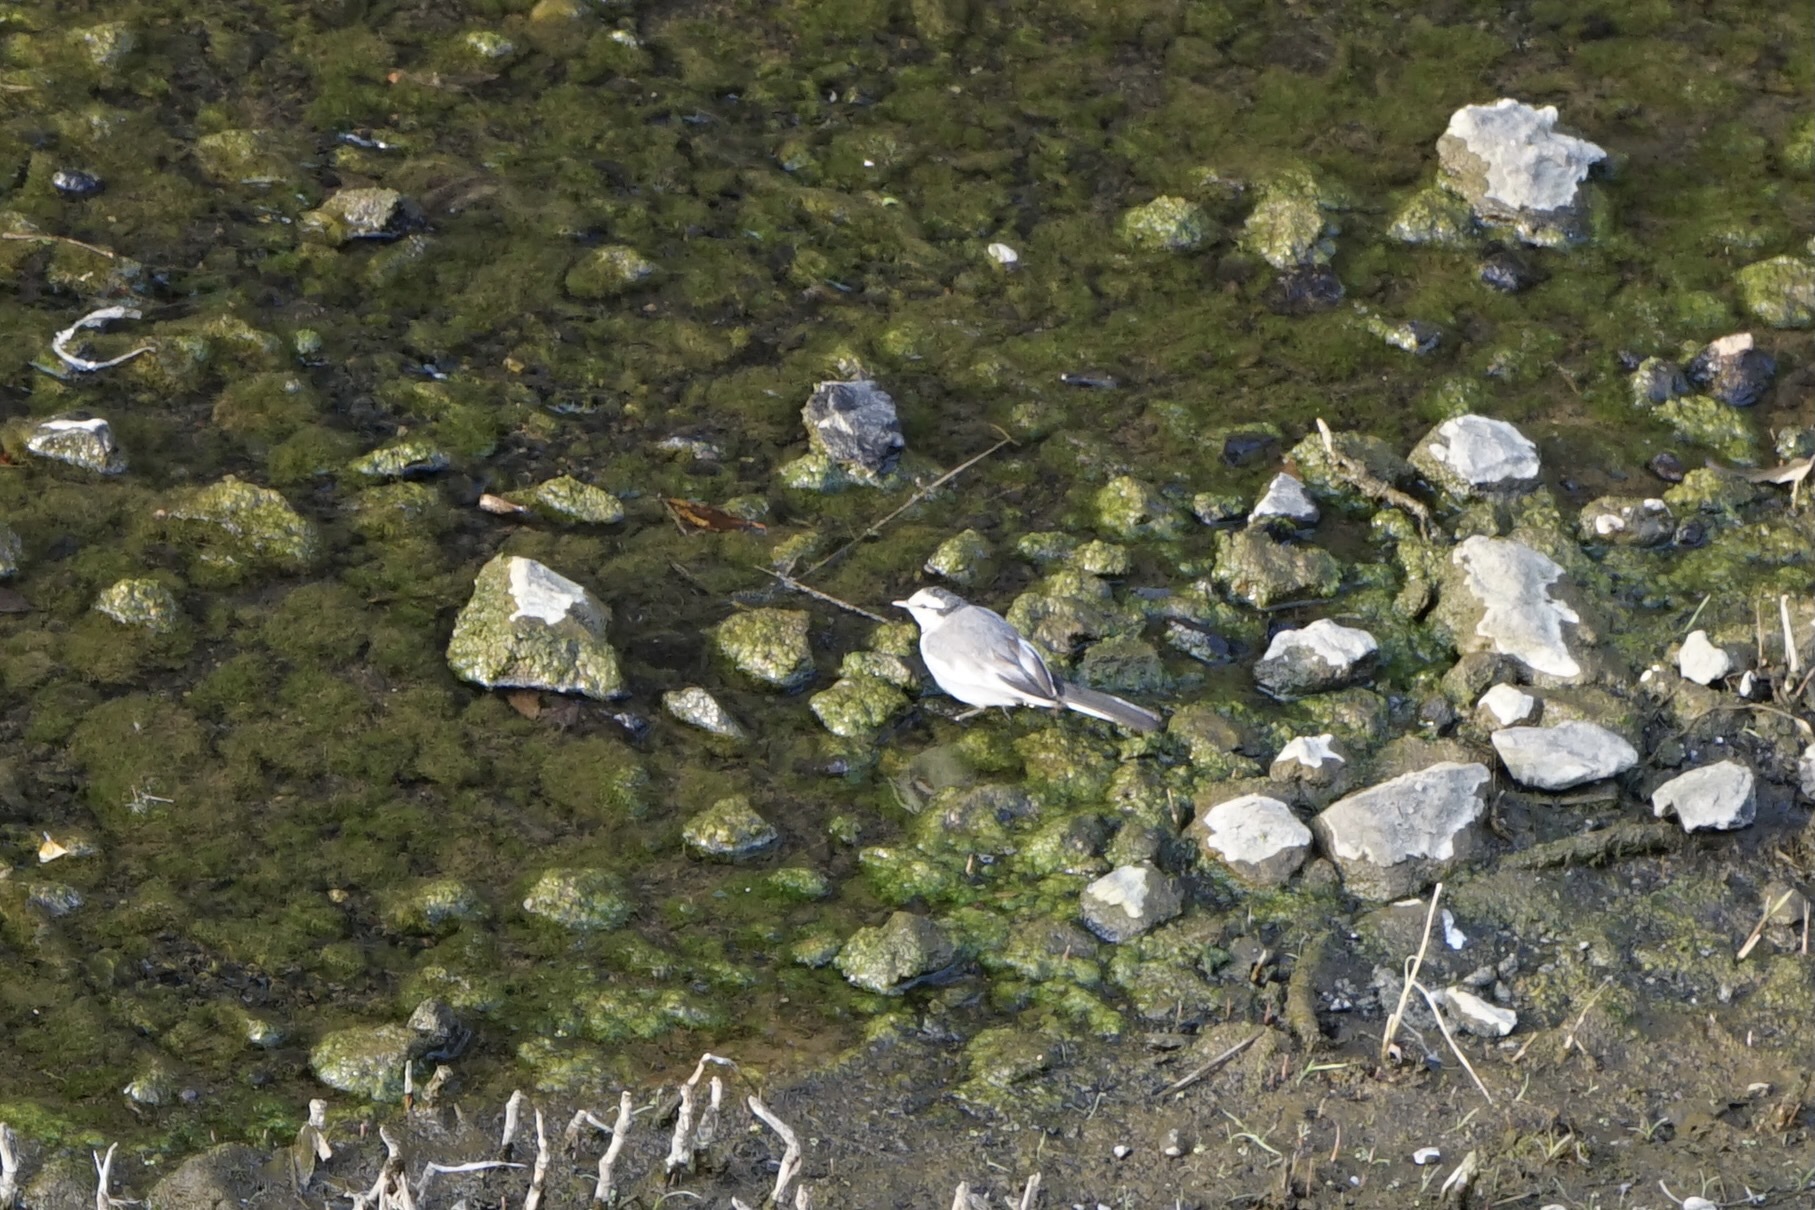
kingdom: Animalia
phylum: Chordata
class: Aves
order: Passeriformes
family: Motacillidae
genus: Motacilla
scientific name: Motacilla alba
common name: White wagtail
